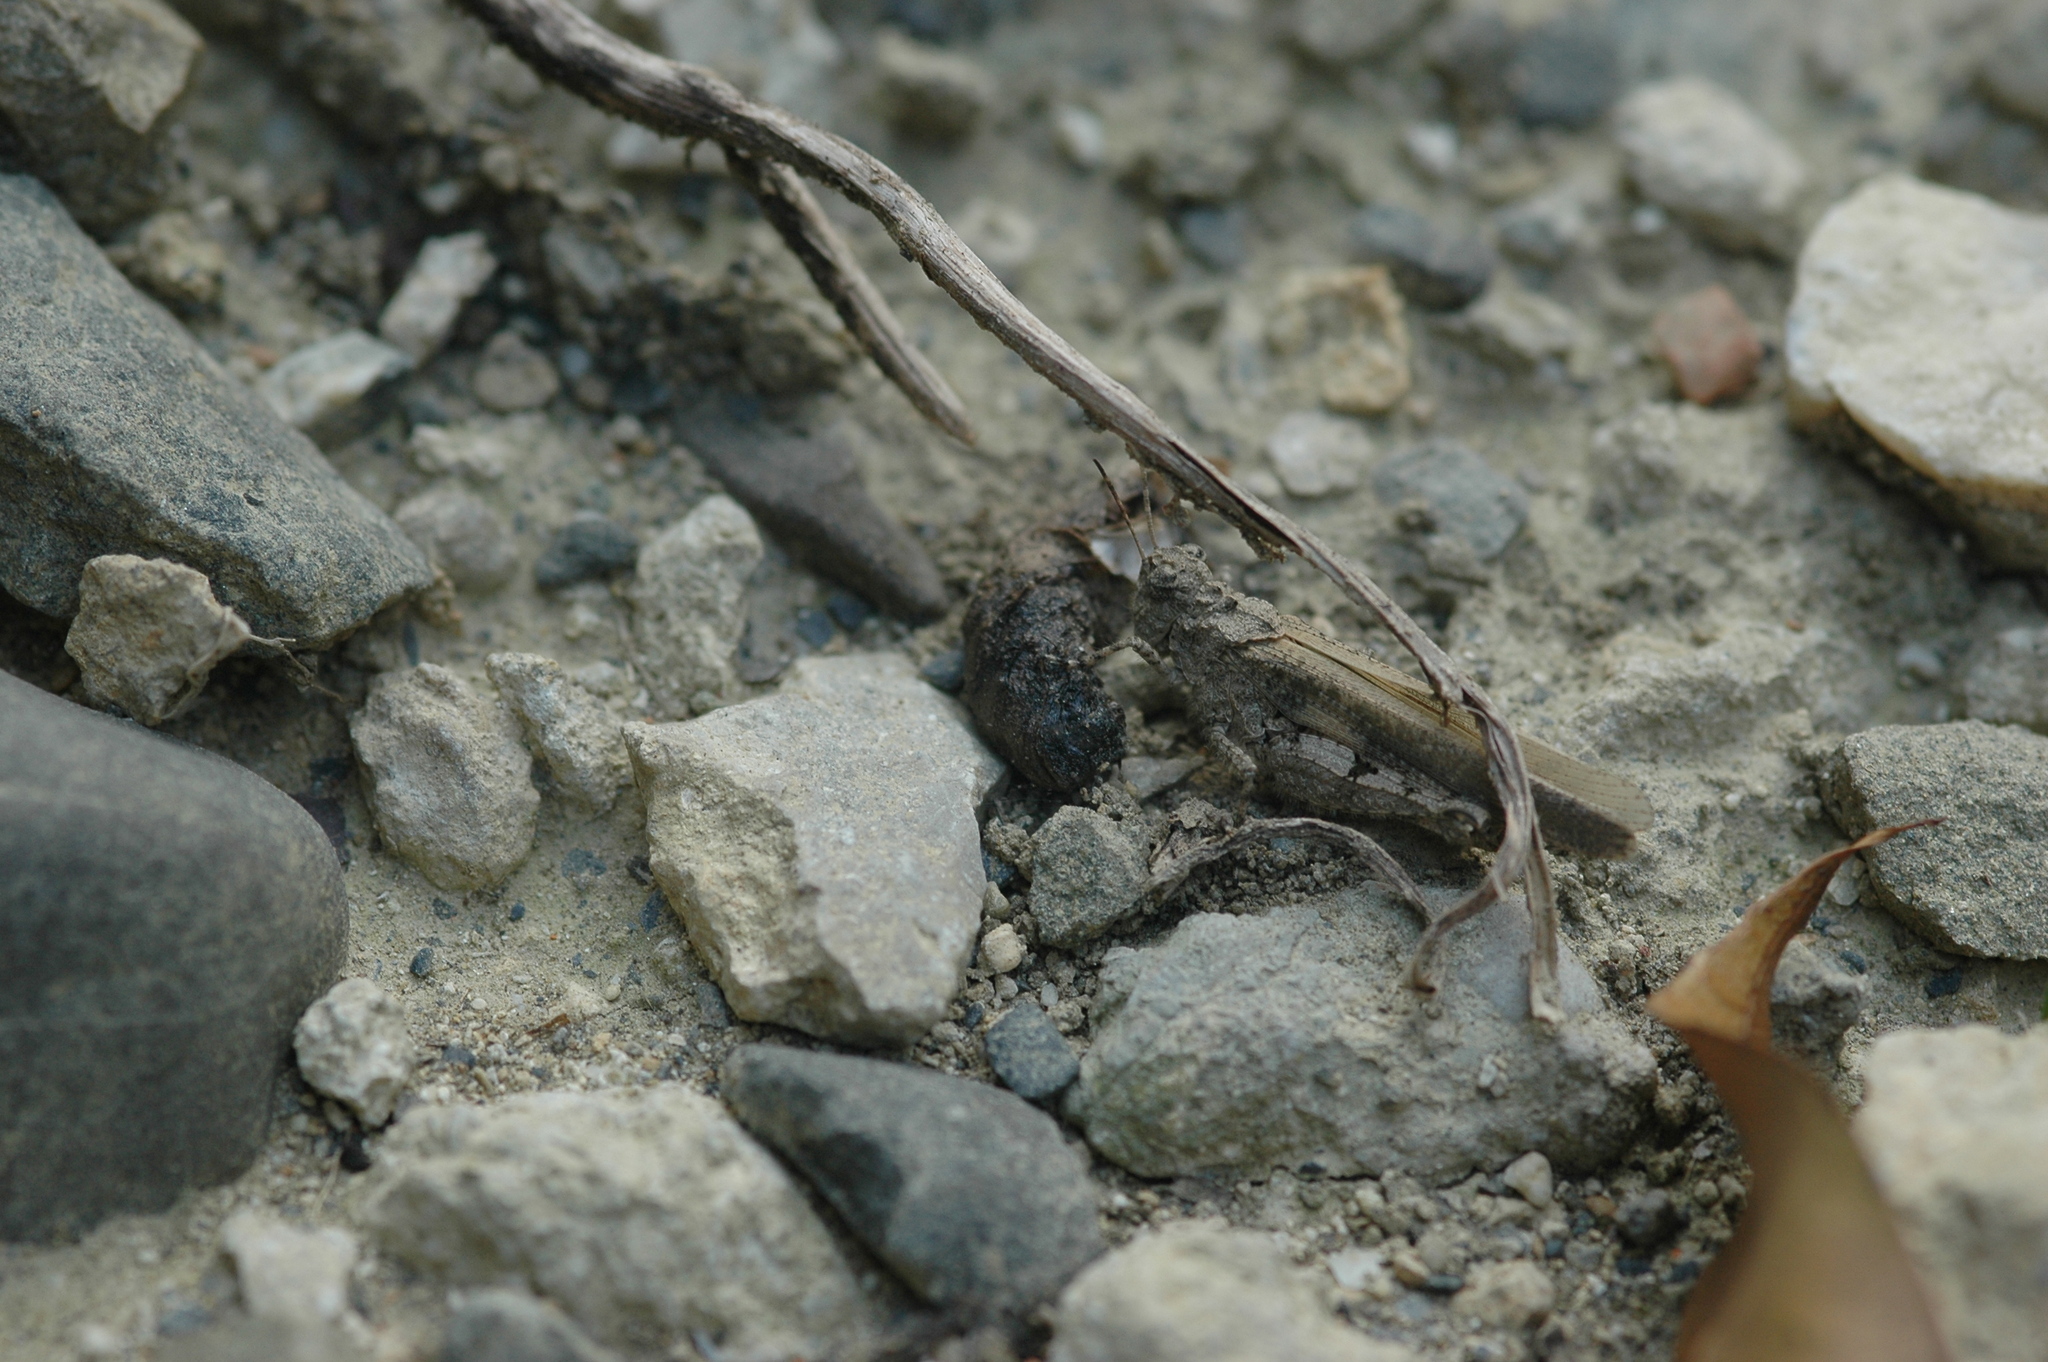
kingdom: Animalia
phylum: Arthropoda
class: Insecta
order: Orthoptera
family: Acrididae
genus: Trilophidia
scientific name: Trilophidia annulata
